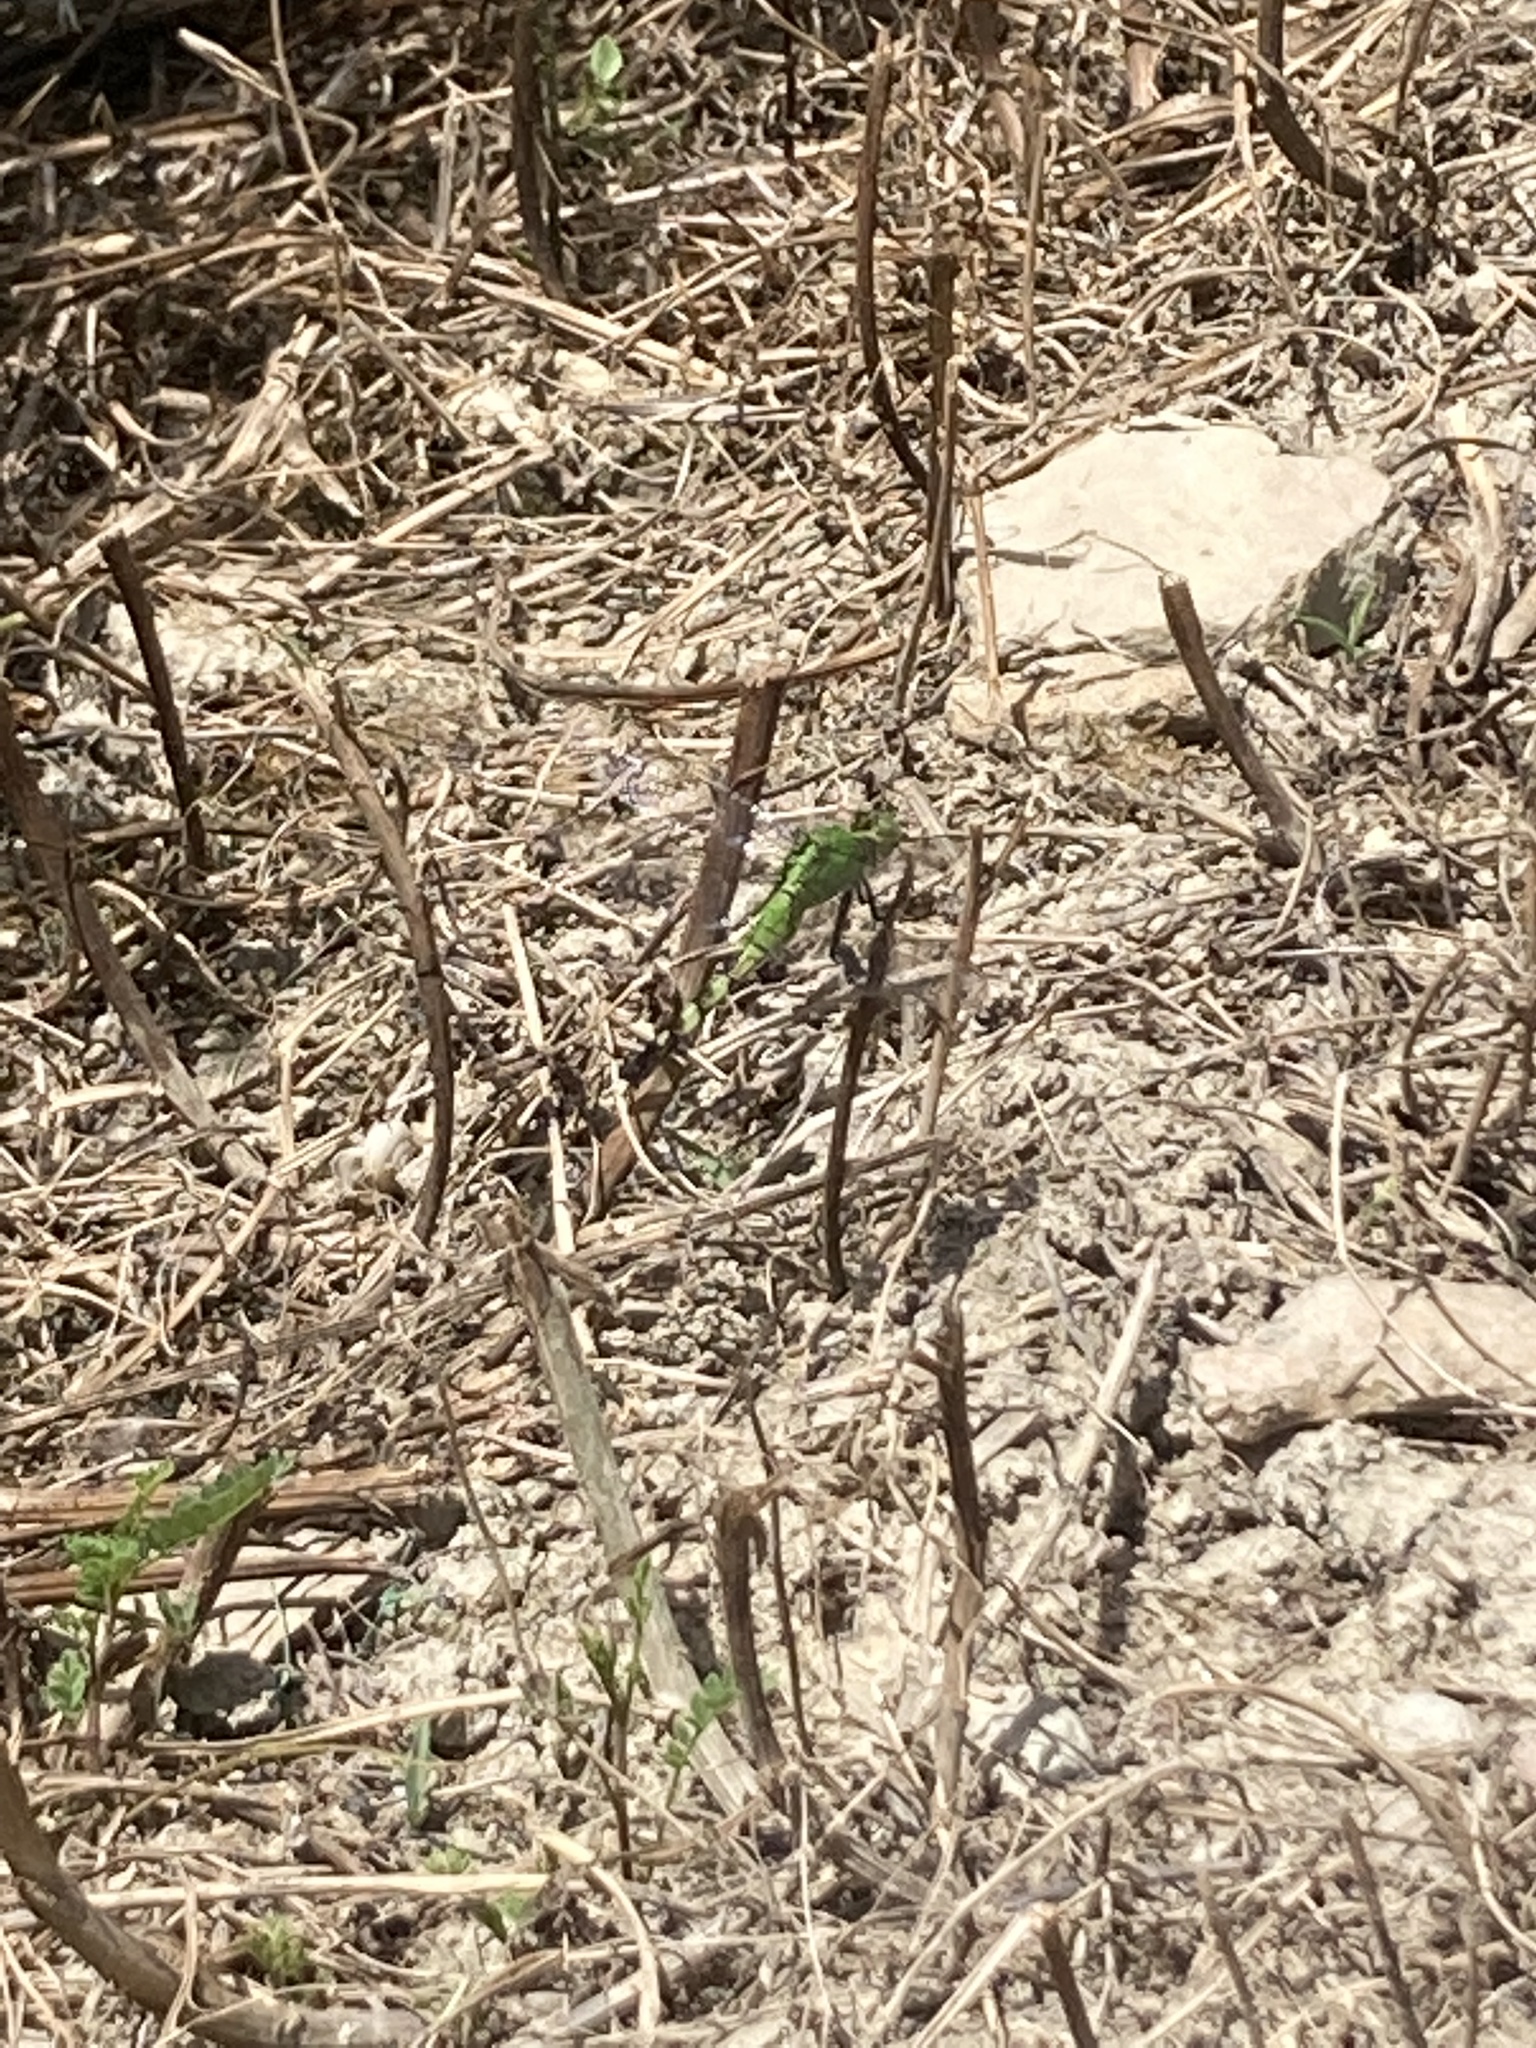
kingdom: Animalia
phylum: Arthropoda
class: Insecta
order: Odonata
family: Libellulidae
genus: Erythemis
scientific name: Erythemis simplicicollis
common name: Eastern pondhawk
